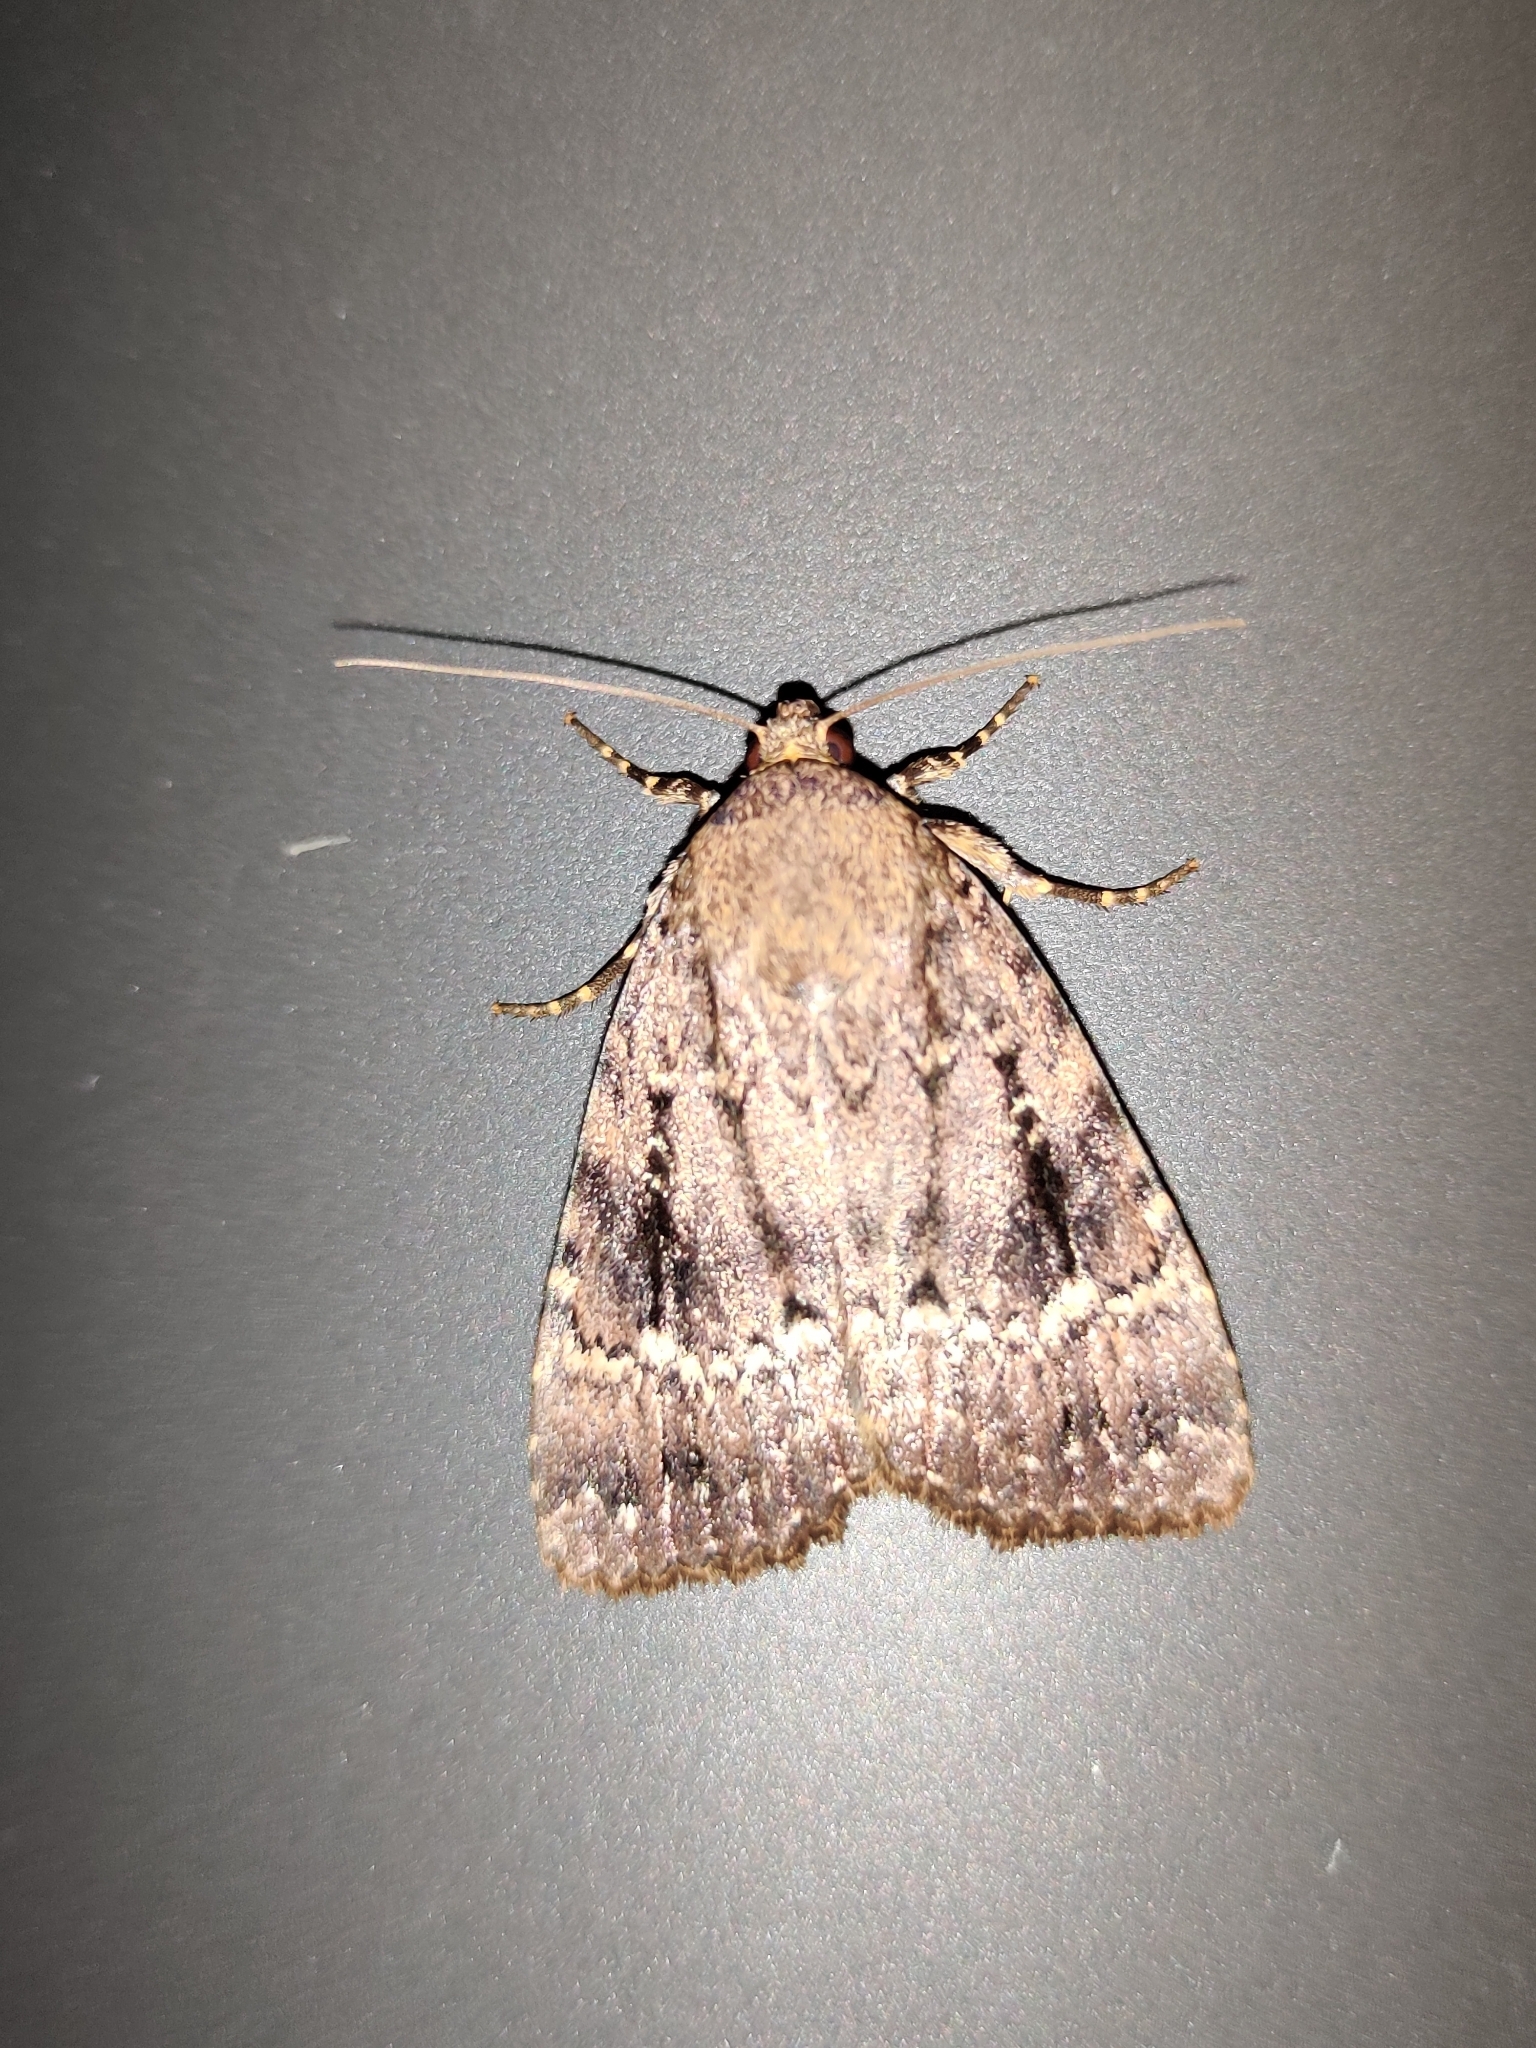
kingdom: Animalia
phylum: Arthropoda
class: Insecta
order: Lepidoptera
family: Noctuidae
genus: Amphipyra
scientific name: Amphipyra pyramidea
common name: Copper underwing
